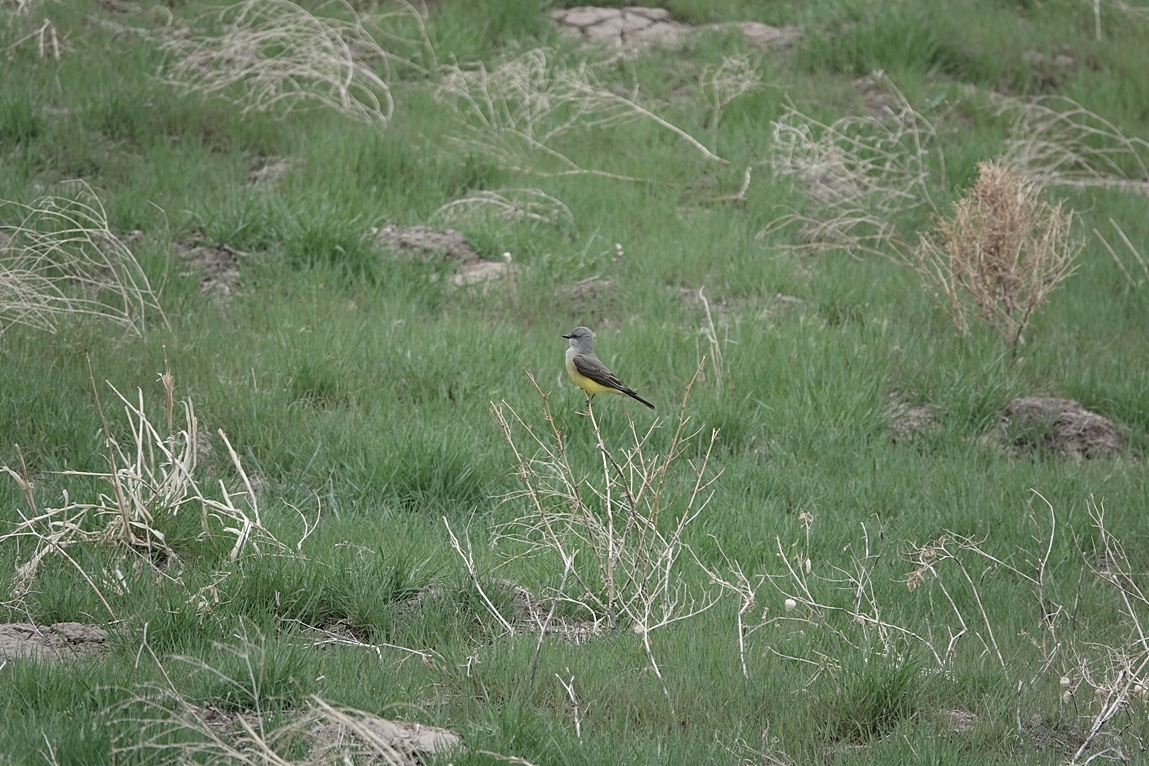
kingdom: Animalia
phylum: Chordata
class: Aves
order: Passeriformes
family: Tyrannidae
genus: Tyrannus
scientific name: Tyrannus verticalis
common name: Western kingbird
